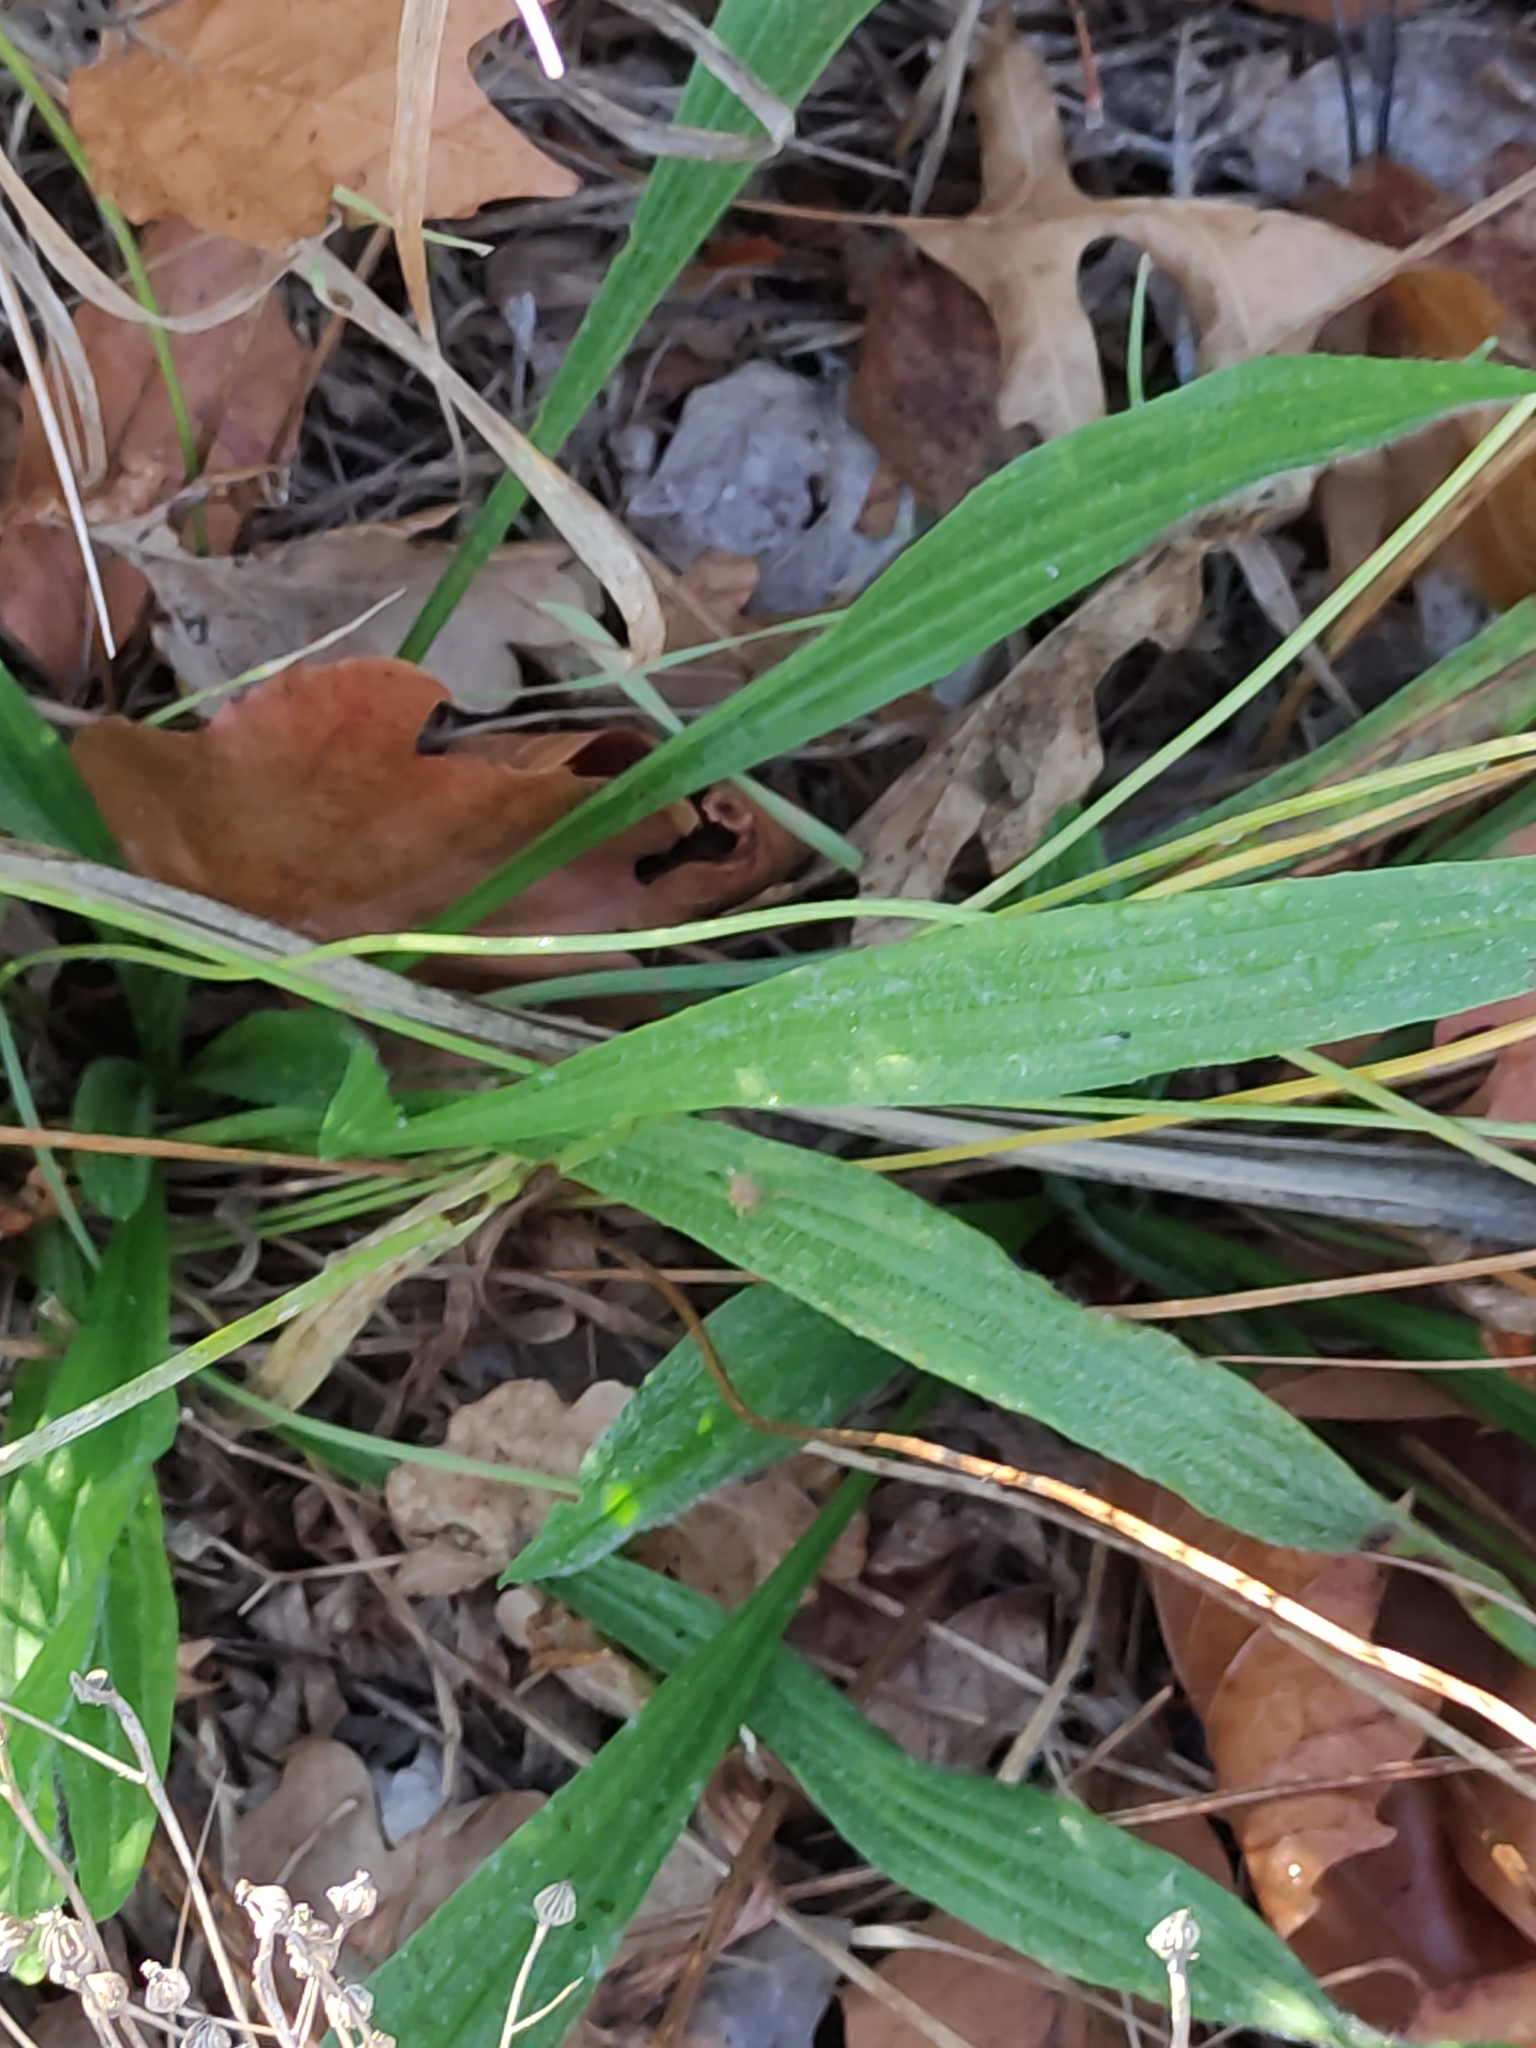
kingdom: Plantae
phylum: Tracheophyta
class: Magnoliopsida
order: Lamiales
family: Plantaginaceae
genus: Plantago
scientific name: Plantago lanceolata
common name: Ribwort plantain
